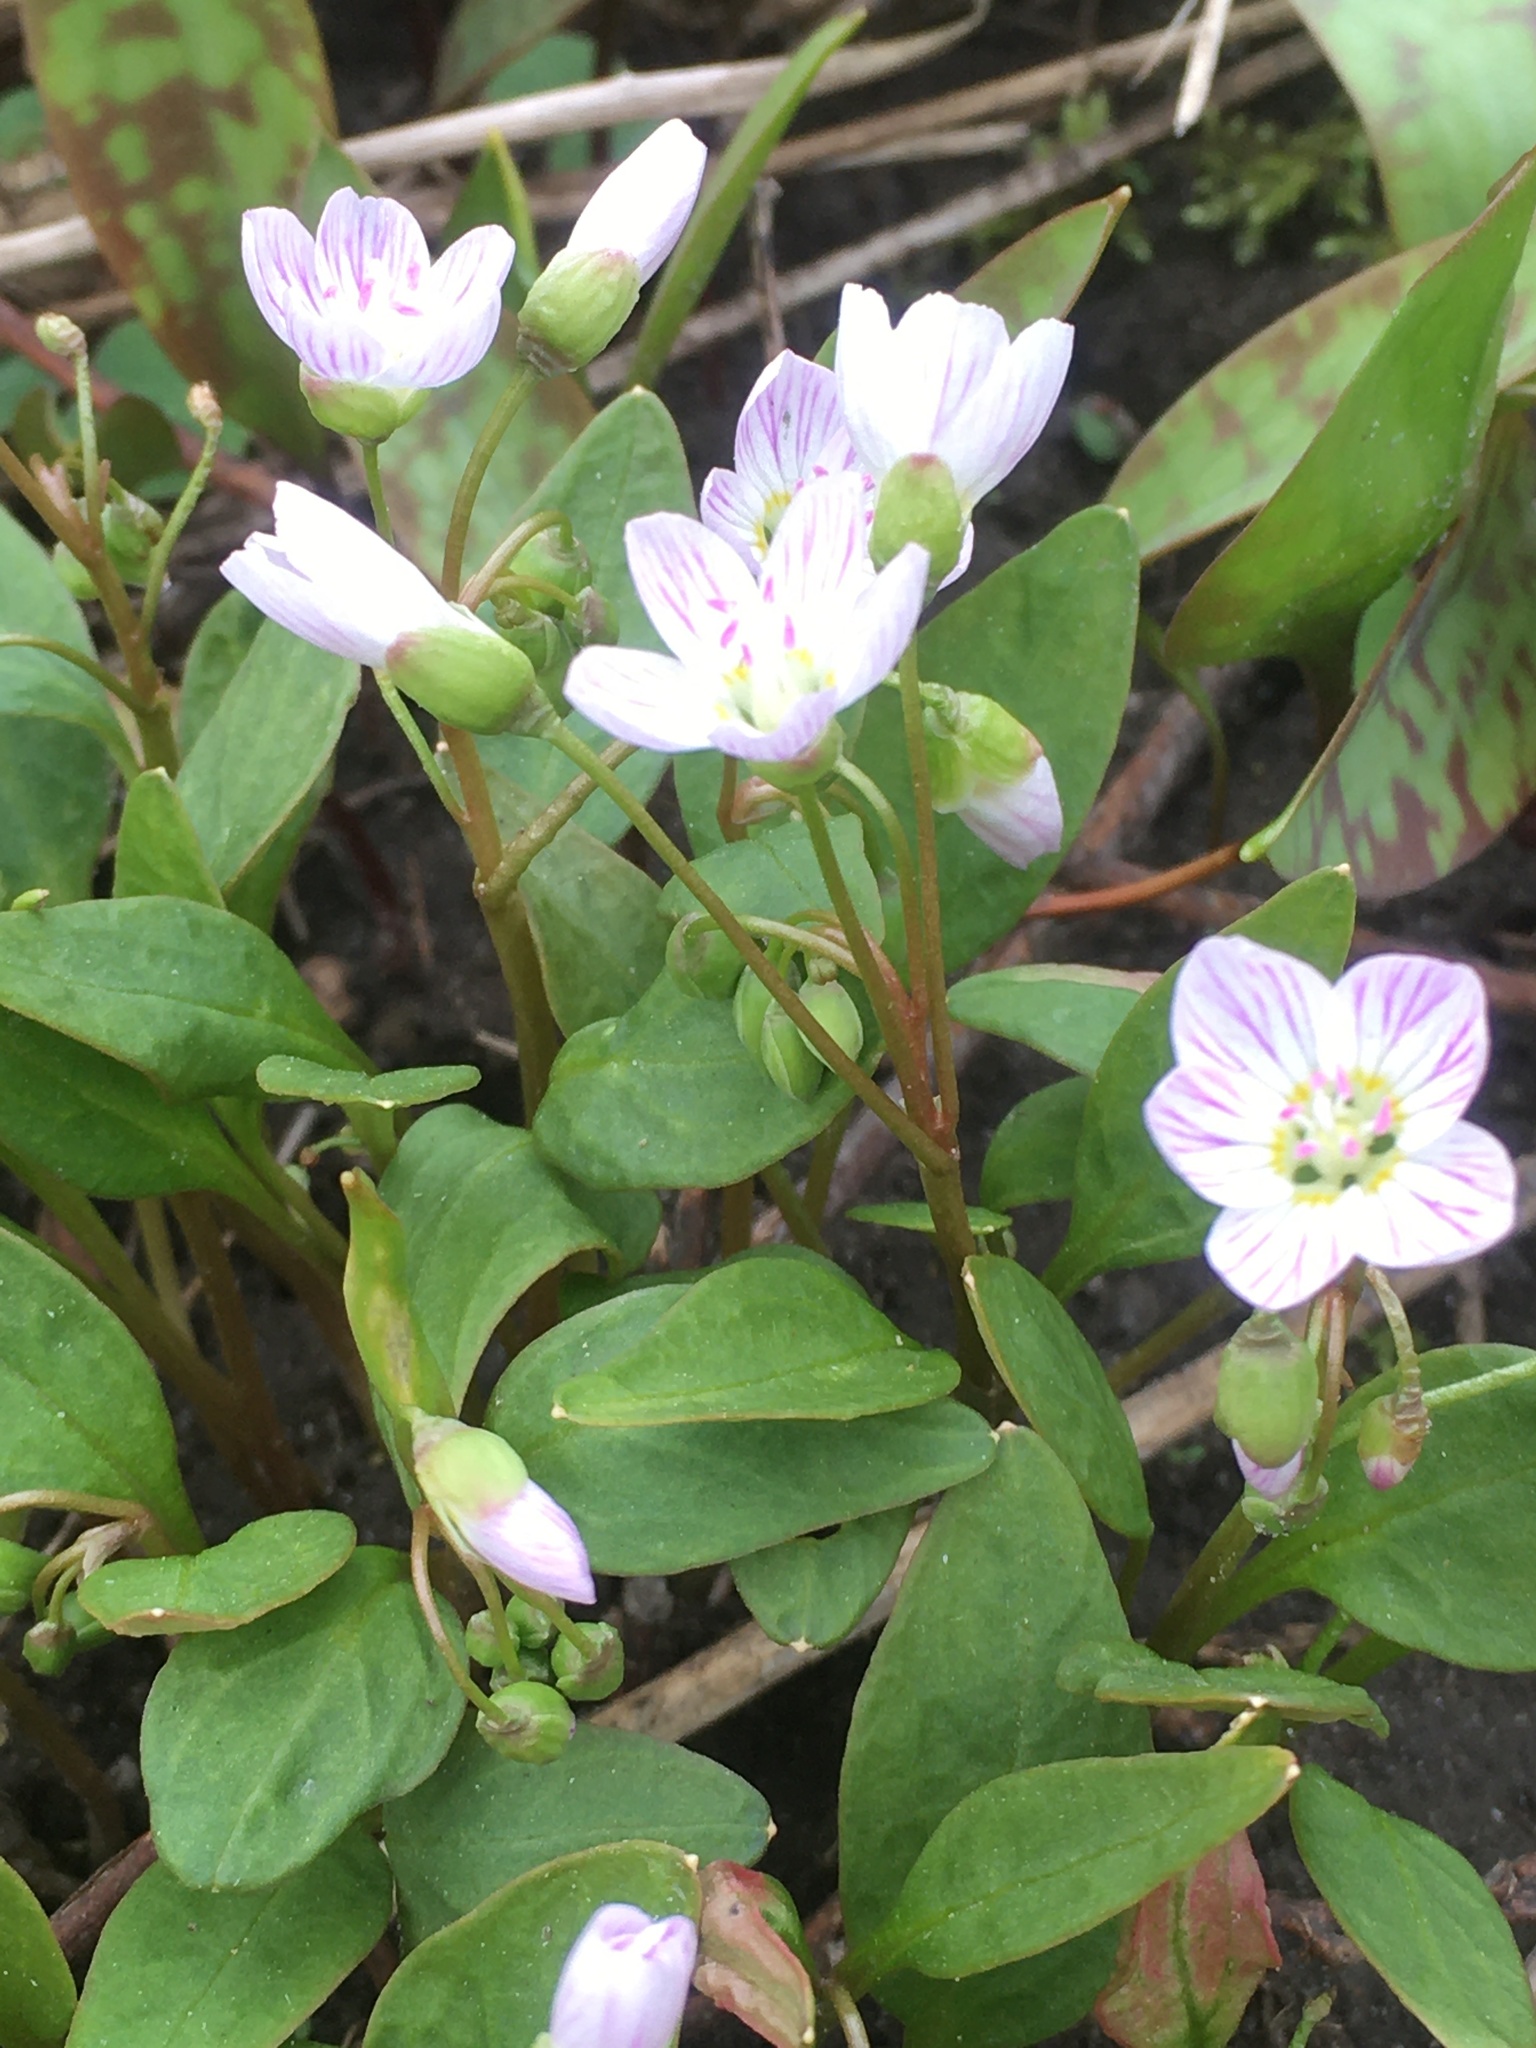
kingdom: Plantae
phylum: Tracheophyta
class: Magnoliopsida
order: Caryophyllales
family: Montiaceae
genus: Claytonia
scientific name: Claytonia caroliniana
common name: Carolina spring beauty
